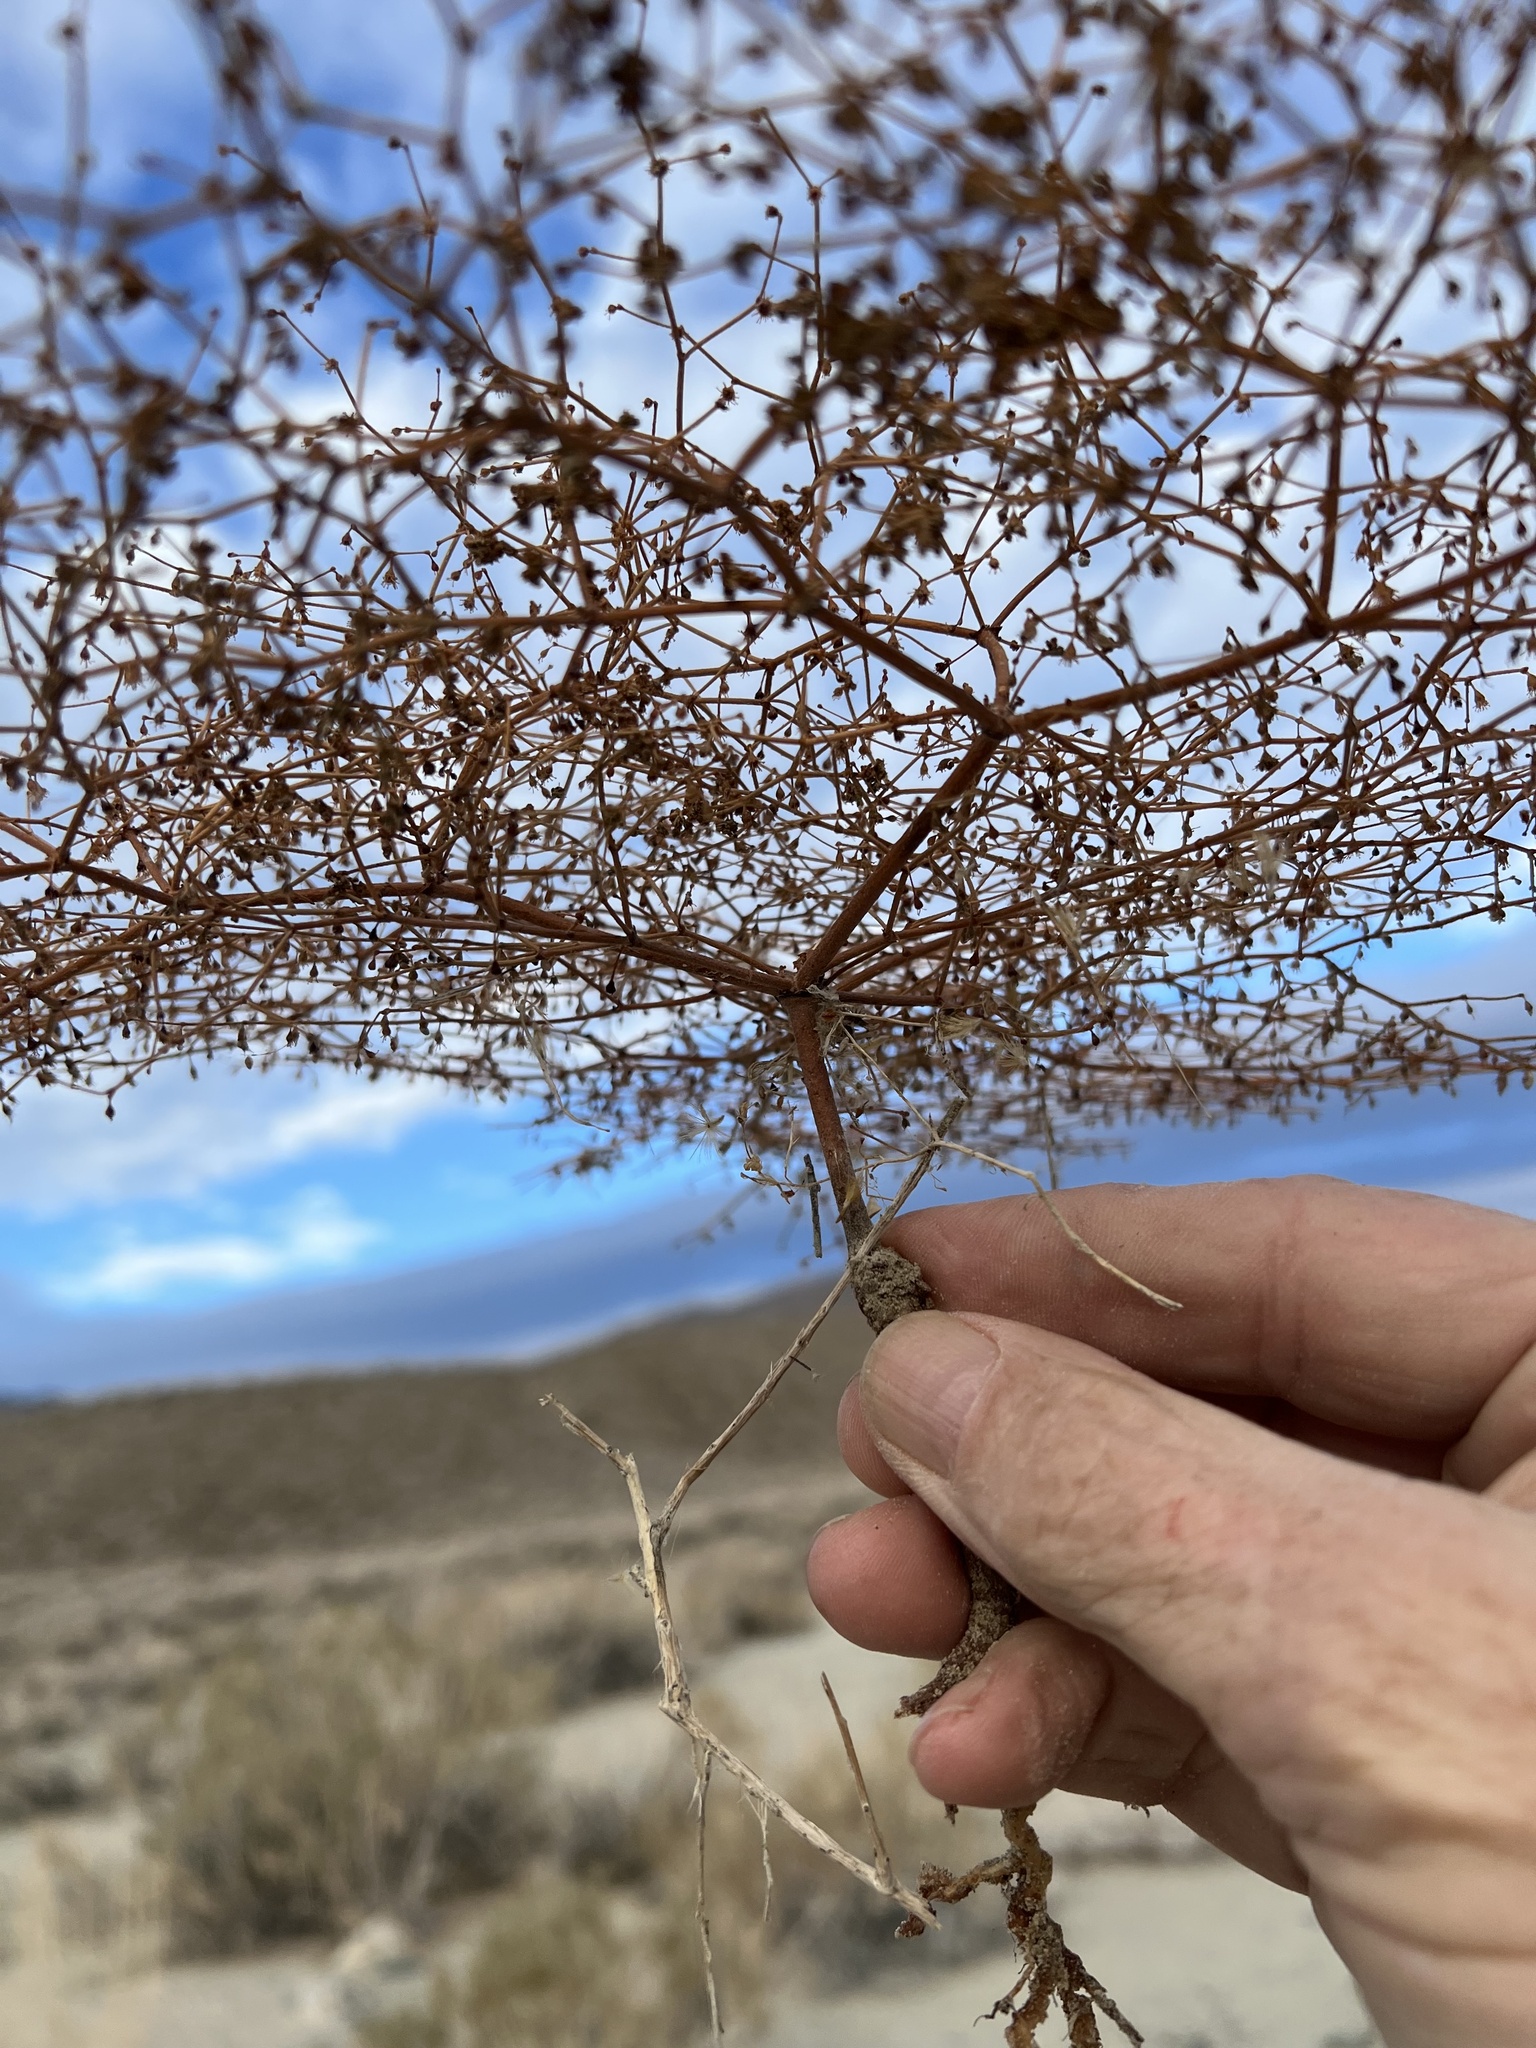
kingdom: Plantae
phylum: Tracheophyta
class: Magnoliopsida
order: Caryophyllales
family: Polygonaceae
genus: Eriogonum
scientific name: Eriogonum brachypodum
